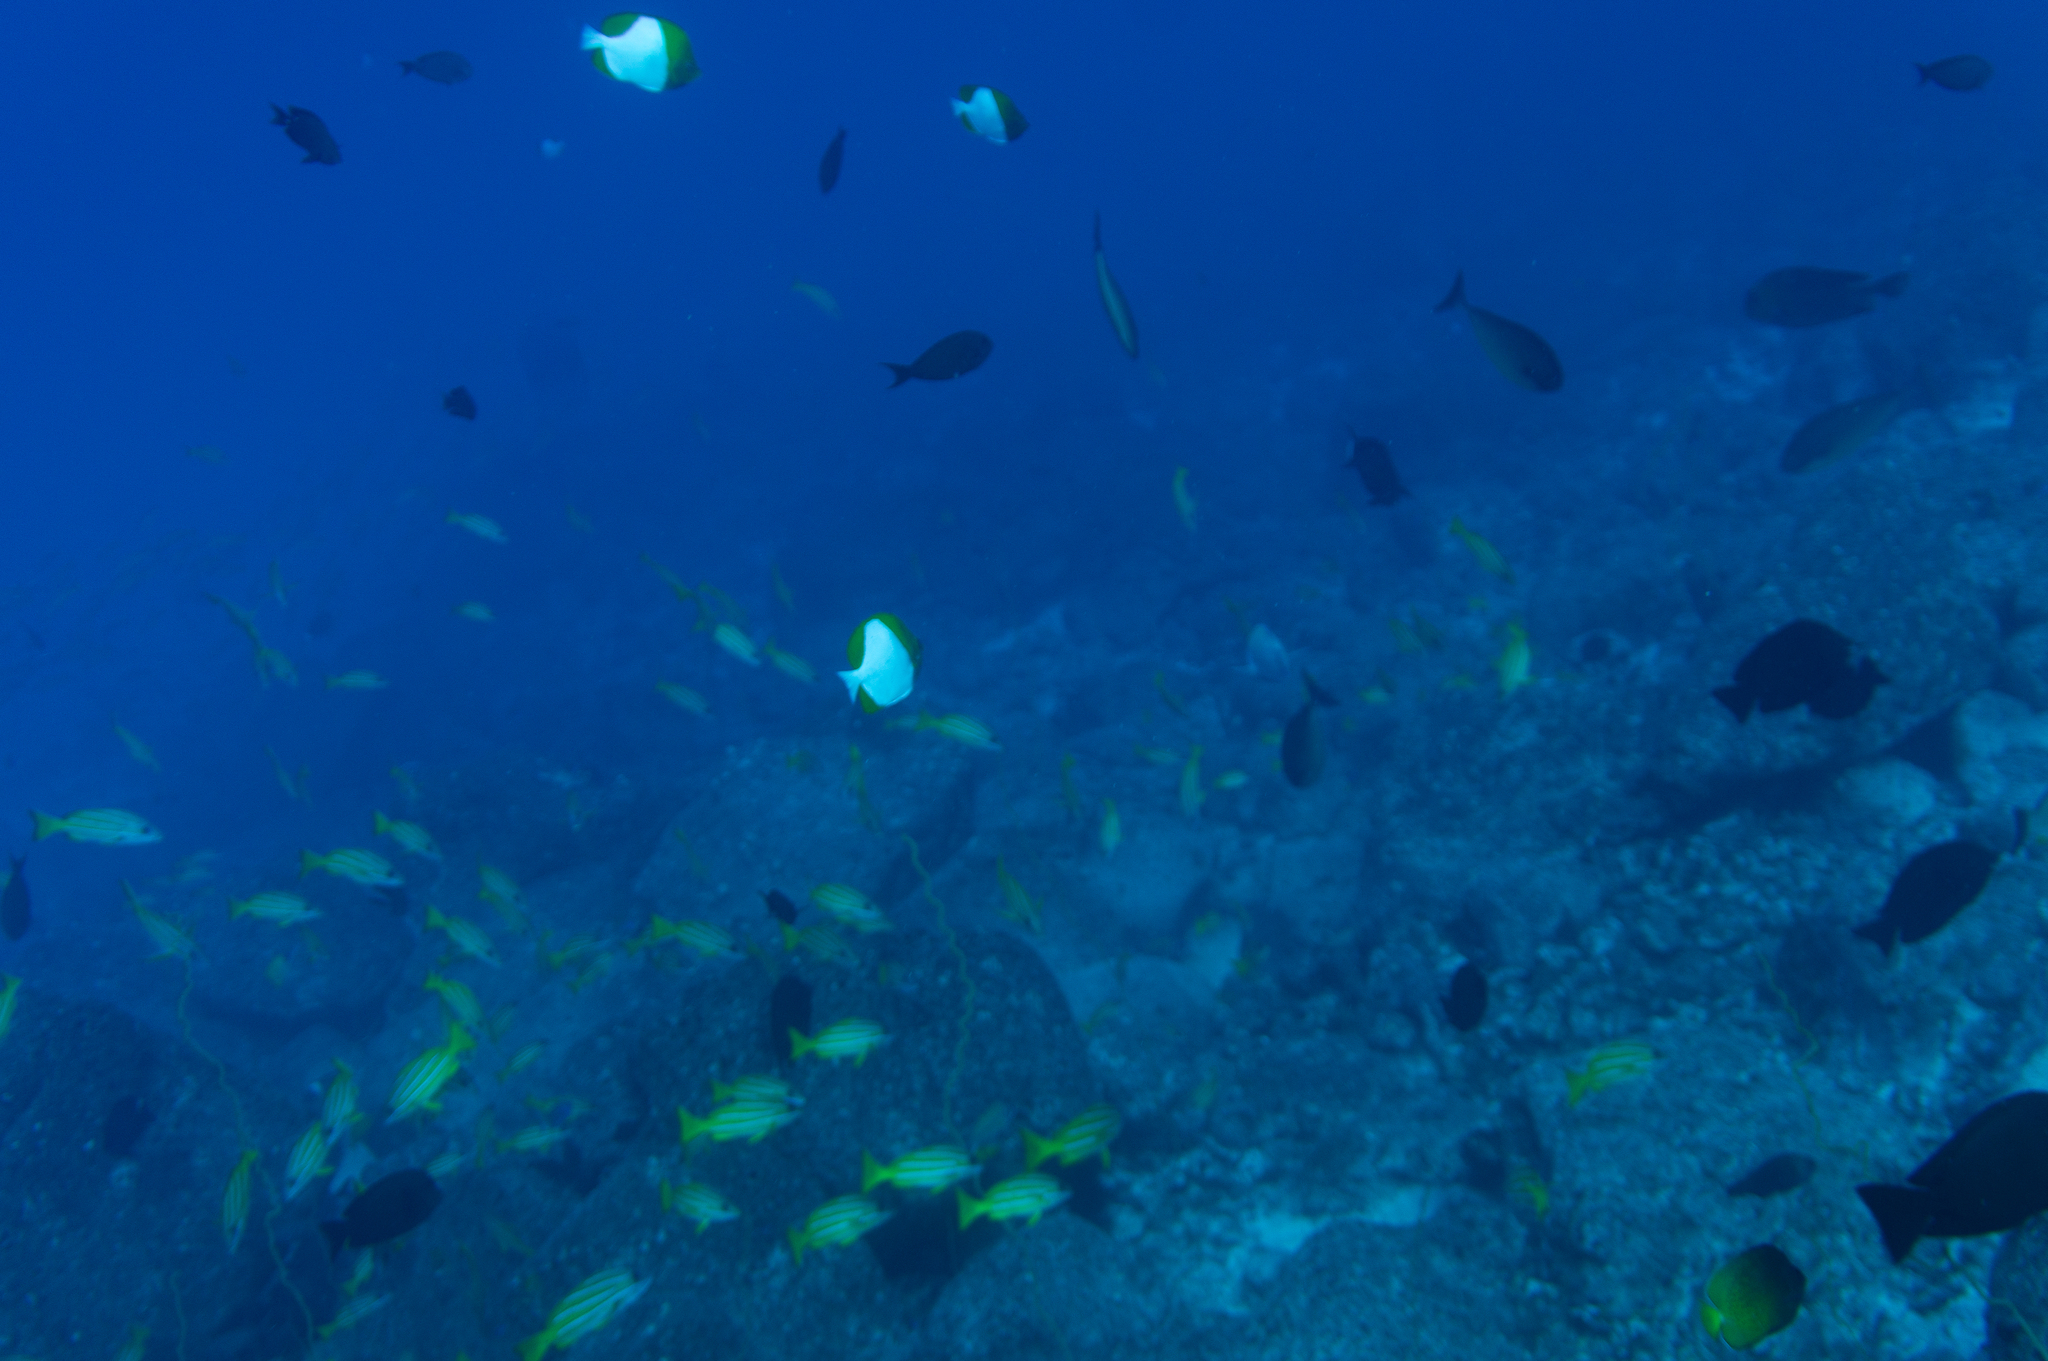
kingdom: Animalia
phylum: Chordata
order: Perciformes
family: Chaetodontidae
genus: Hemitaurichthys
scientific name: Hemitaurichthys polylepis
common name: Brushytoothed butterflyfish
